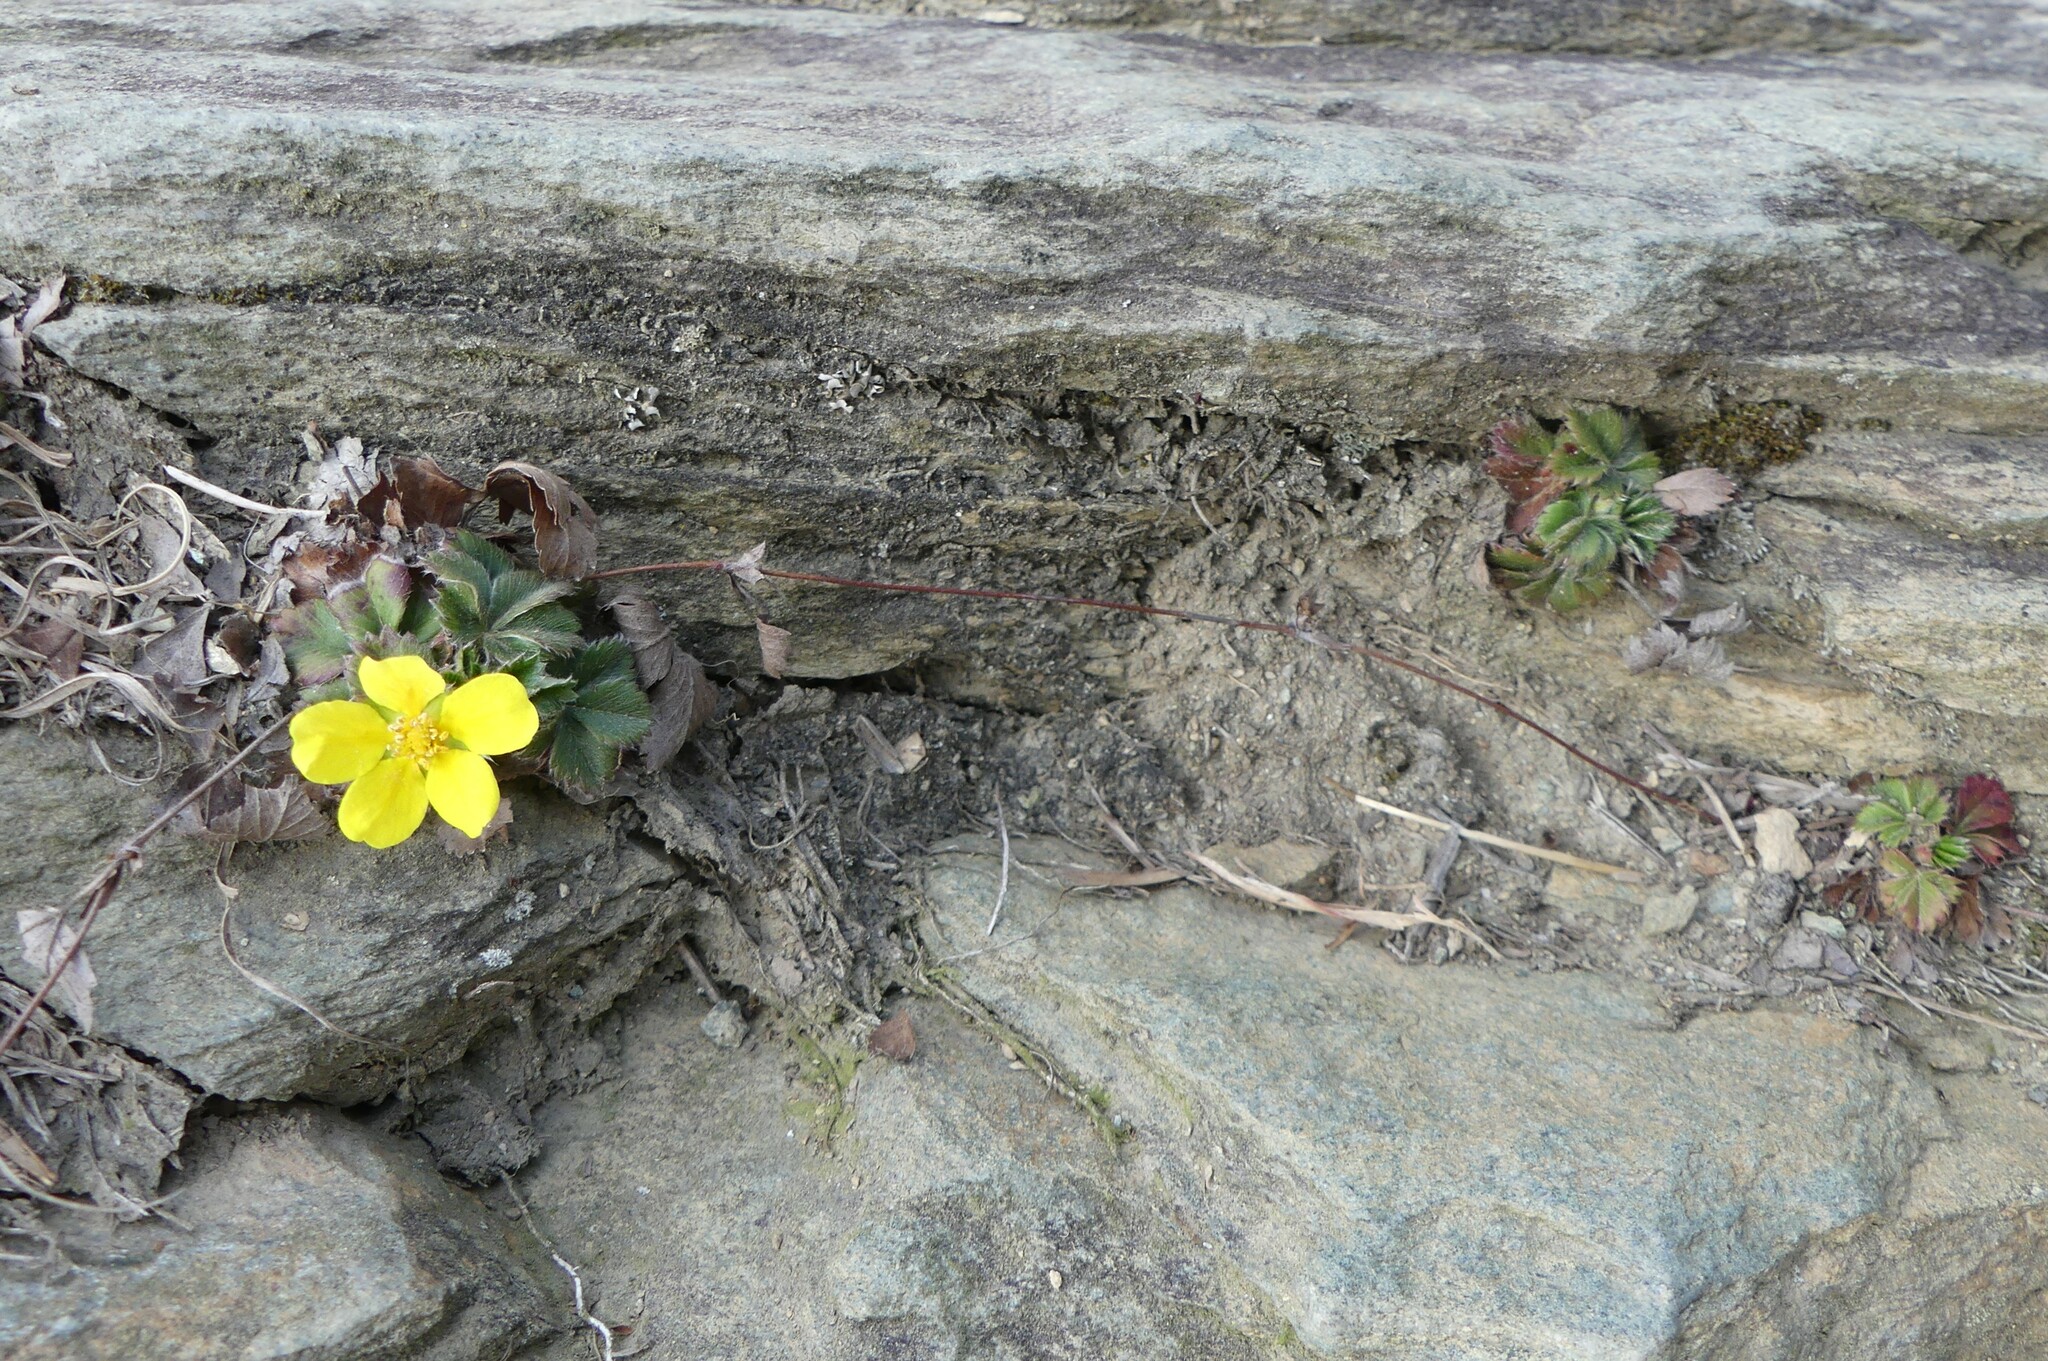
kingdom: Plantae
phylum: Tracheophyta
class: Magnoliopsida
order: Rosales
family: Rosaceae
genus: Potentilla
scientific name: Potentilla canadensis
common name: Canada cinquefoil
